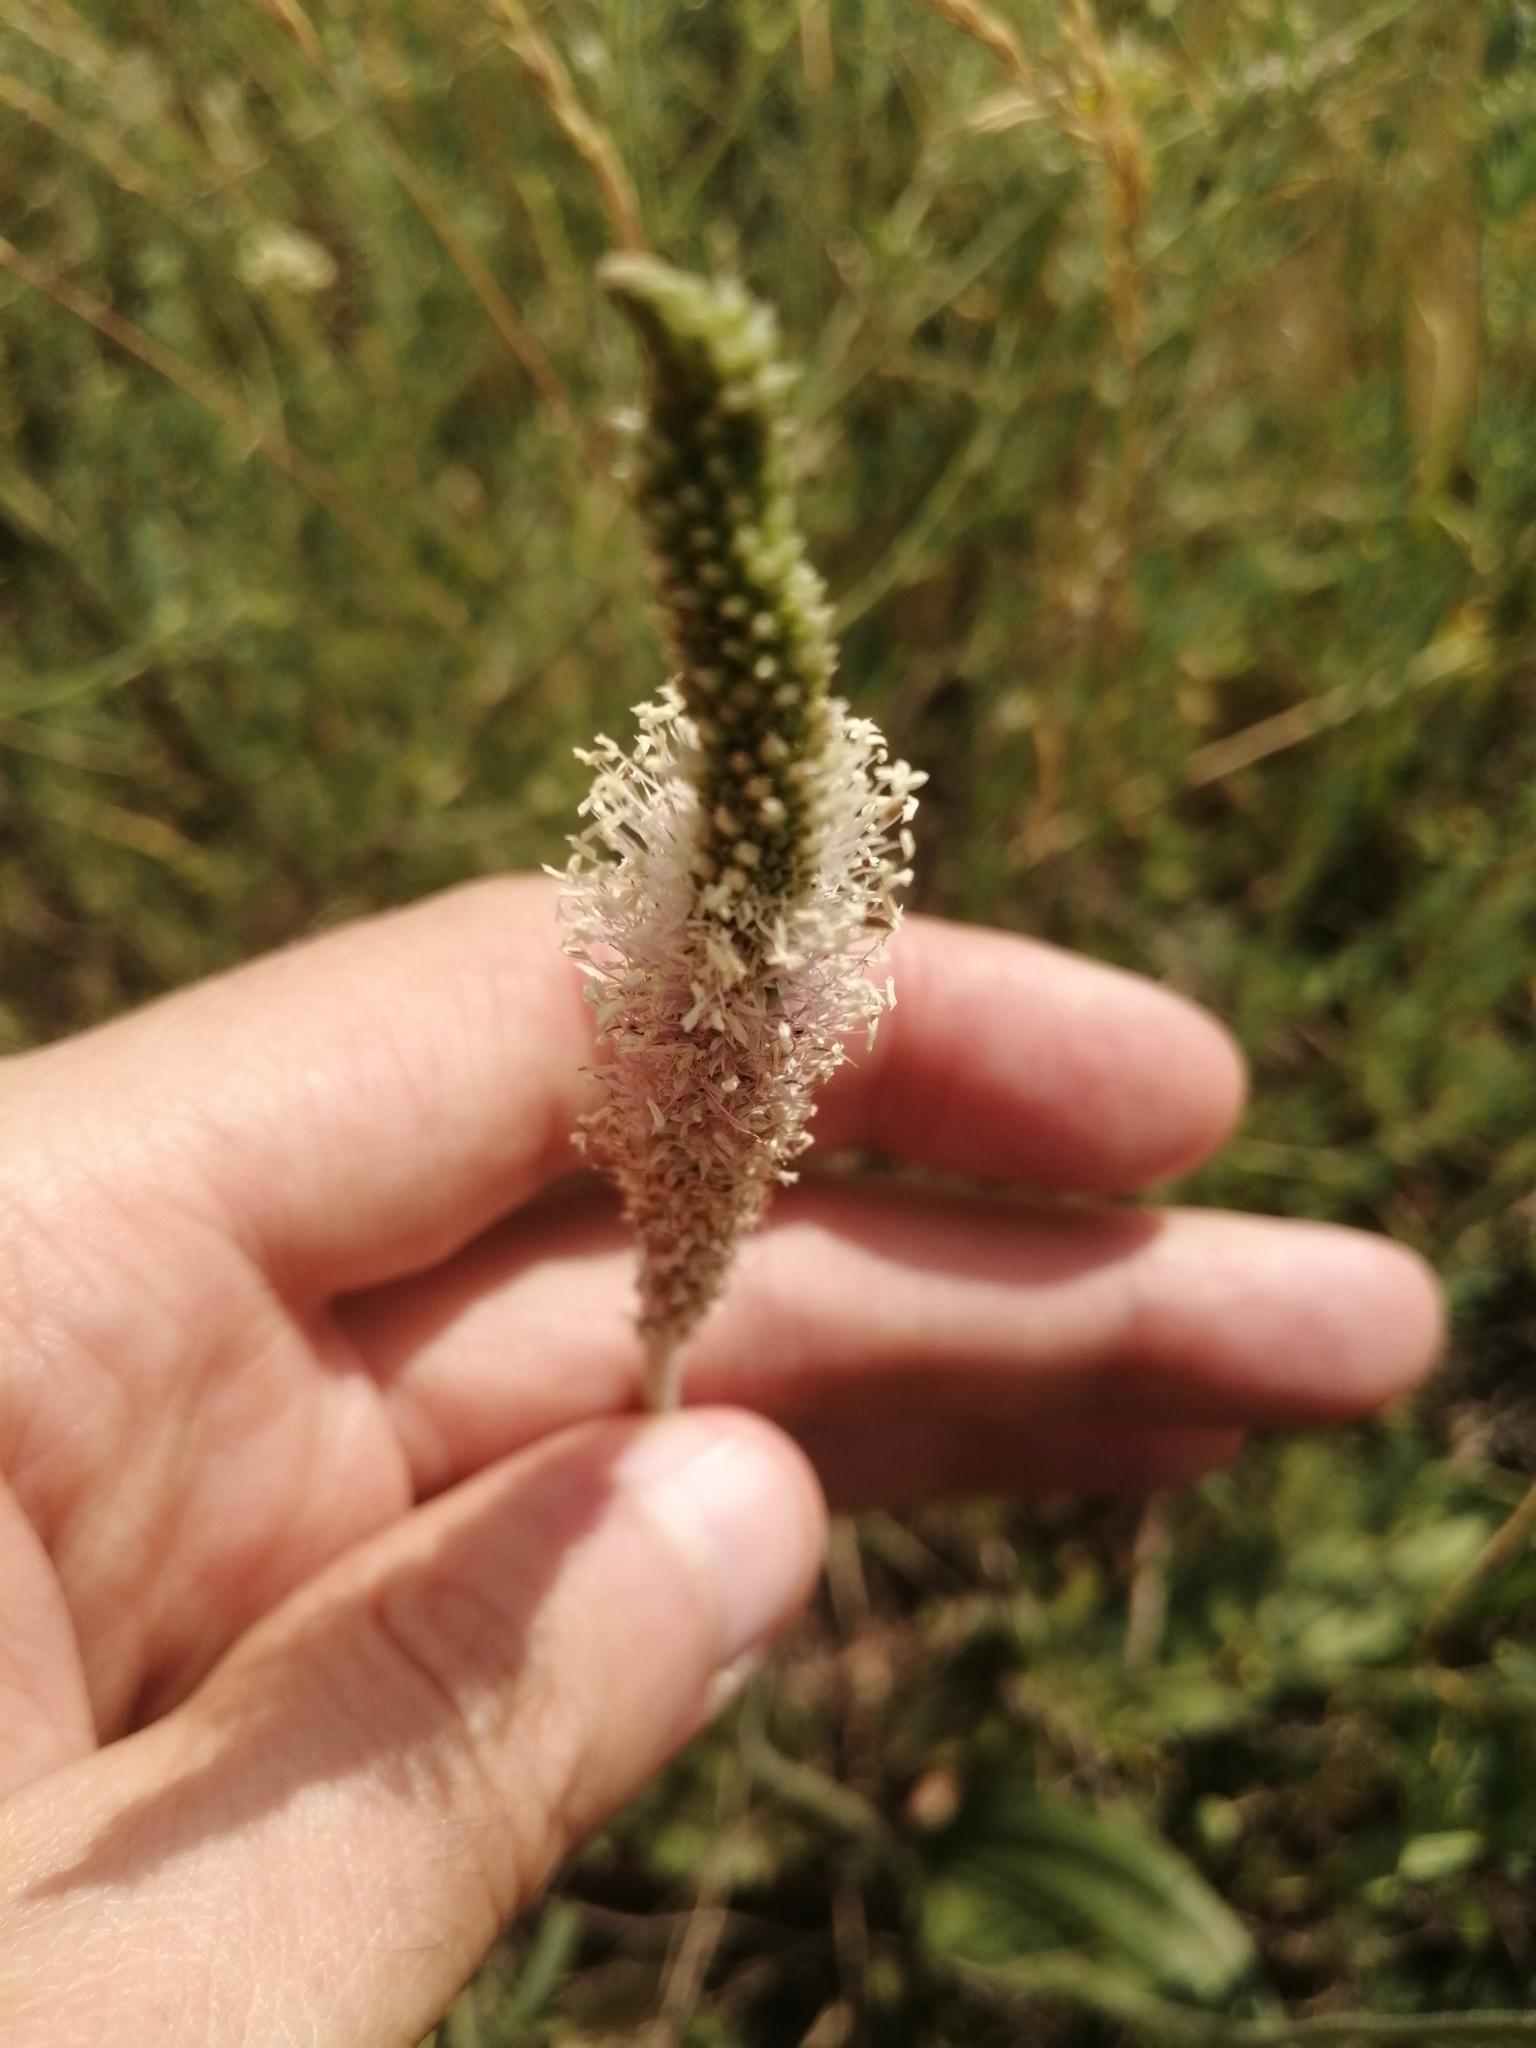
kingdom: Plantae
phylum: Tracheophyta
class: Magnoliopsida
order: Lamiales
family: Plantaginaceae
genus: Plantago
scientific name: Plantago urvillei
